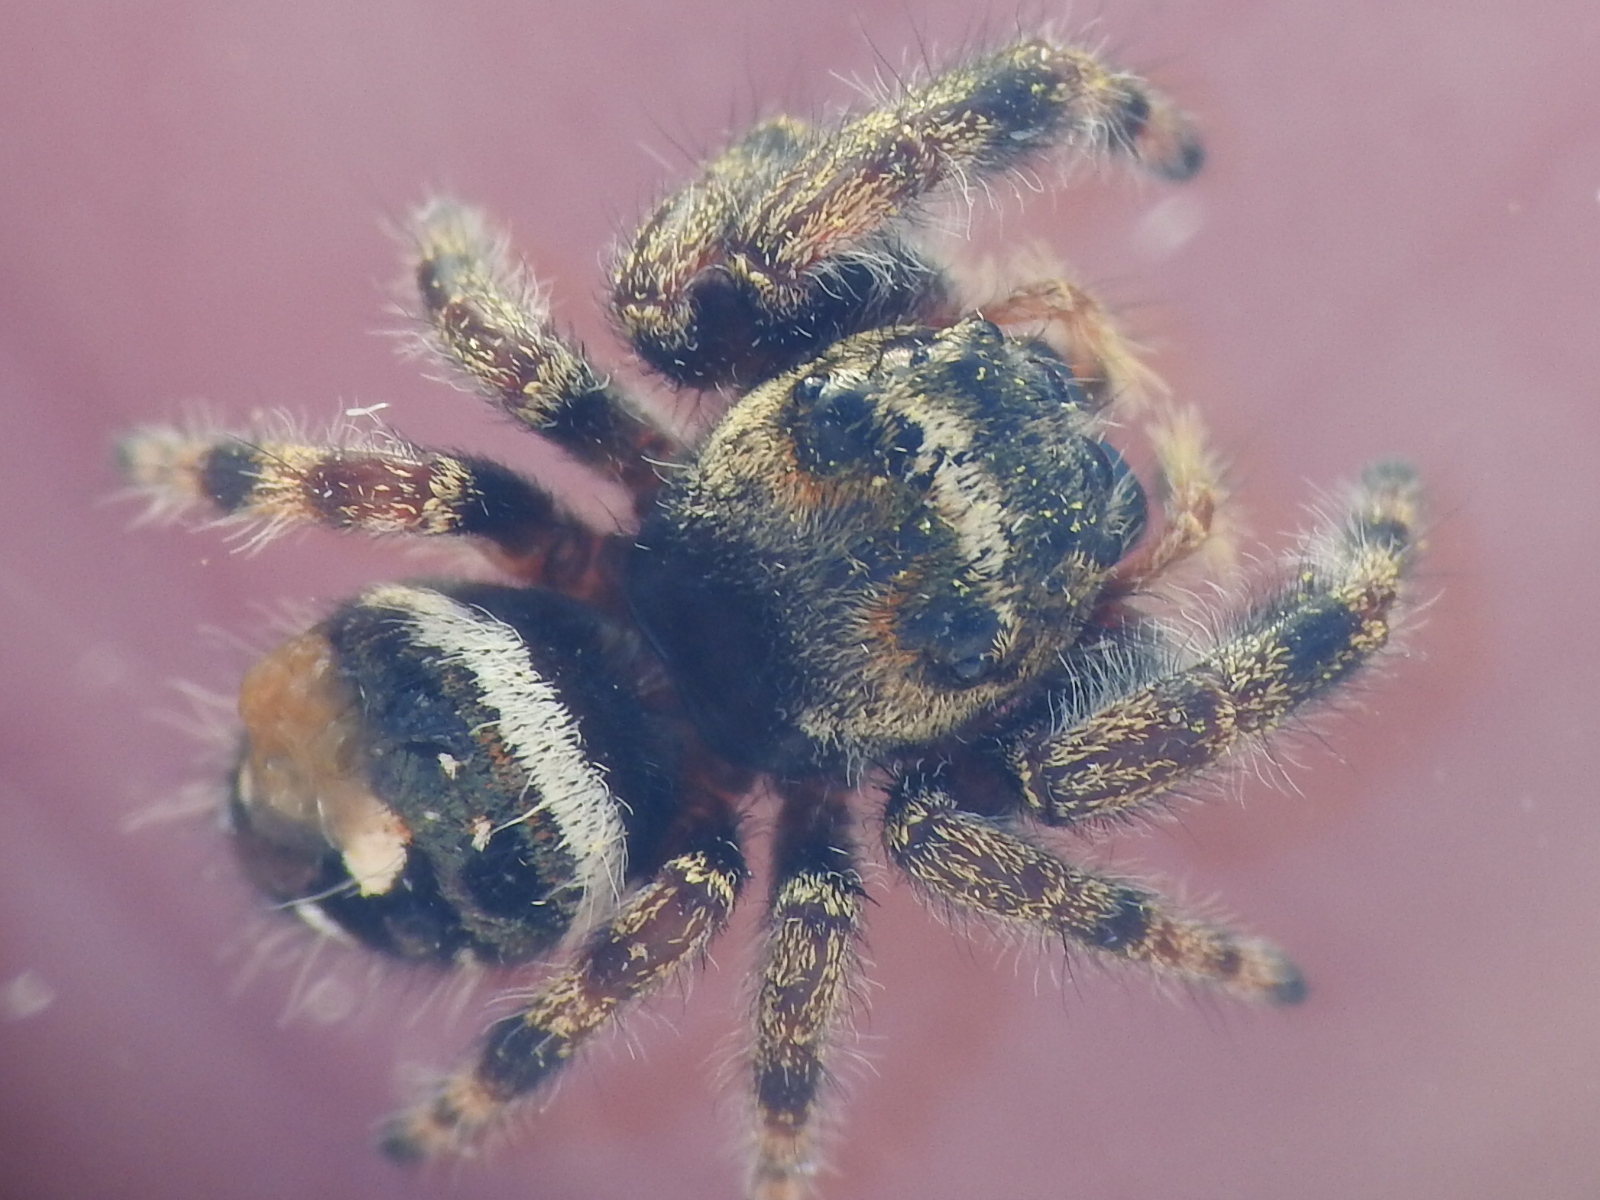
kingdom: Animalia
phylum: Arthropoda
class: Arachnida
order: Araneae
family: Salticidae
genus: Phidippus
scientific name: Phidippus audax
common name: Bold jumper
